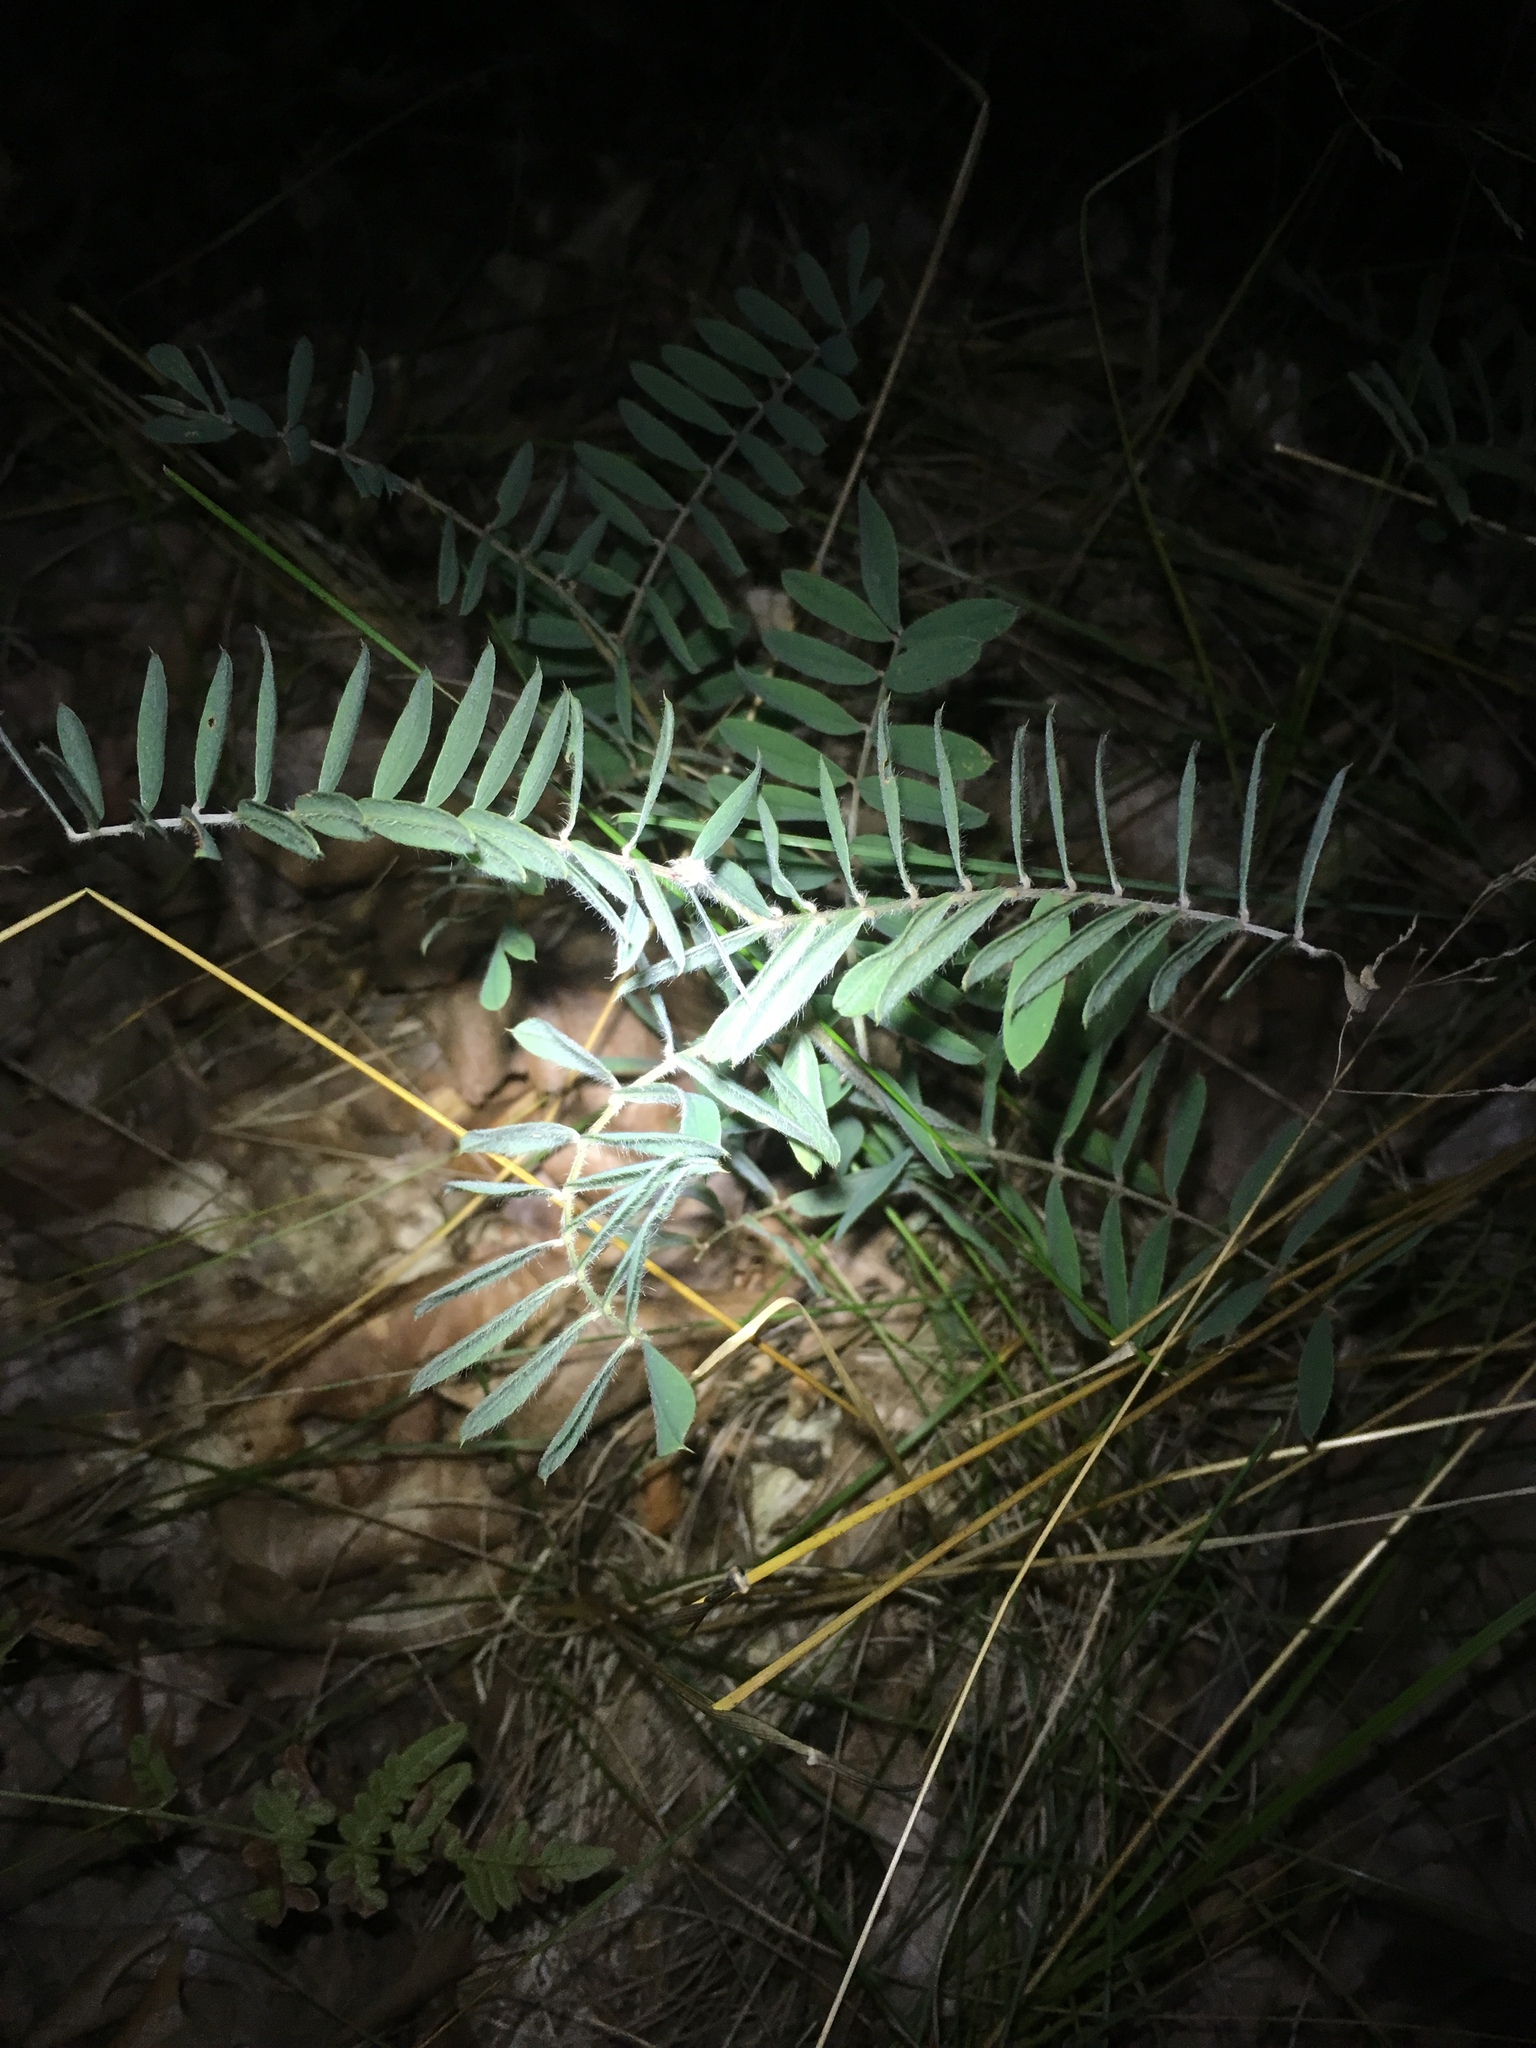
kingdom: Plantae
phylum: Tracheophyta
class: Magnoliopsida
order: Fabales
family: Fabaceae
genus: Tephrosia
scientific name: Tephrosia virginiana
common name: Rabbit-pea
